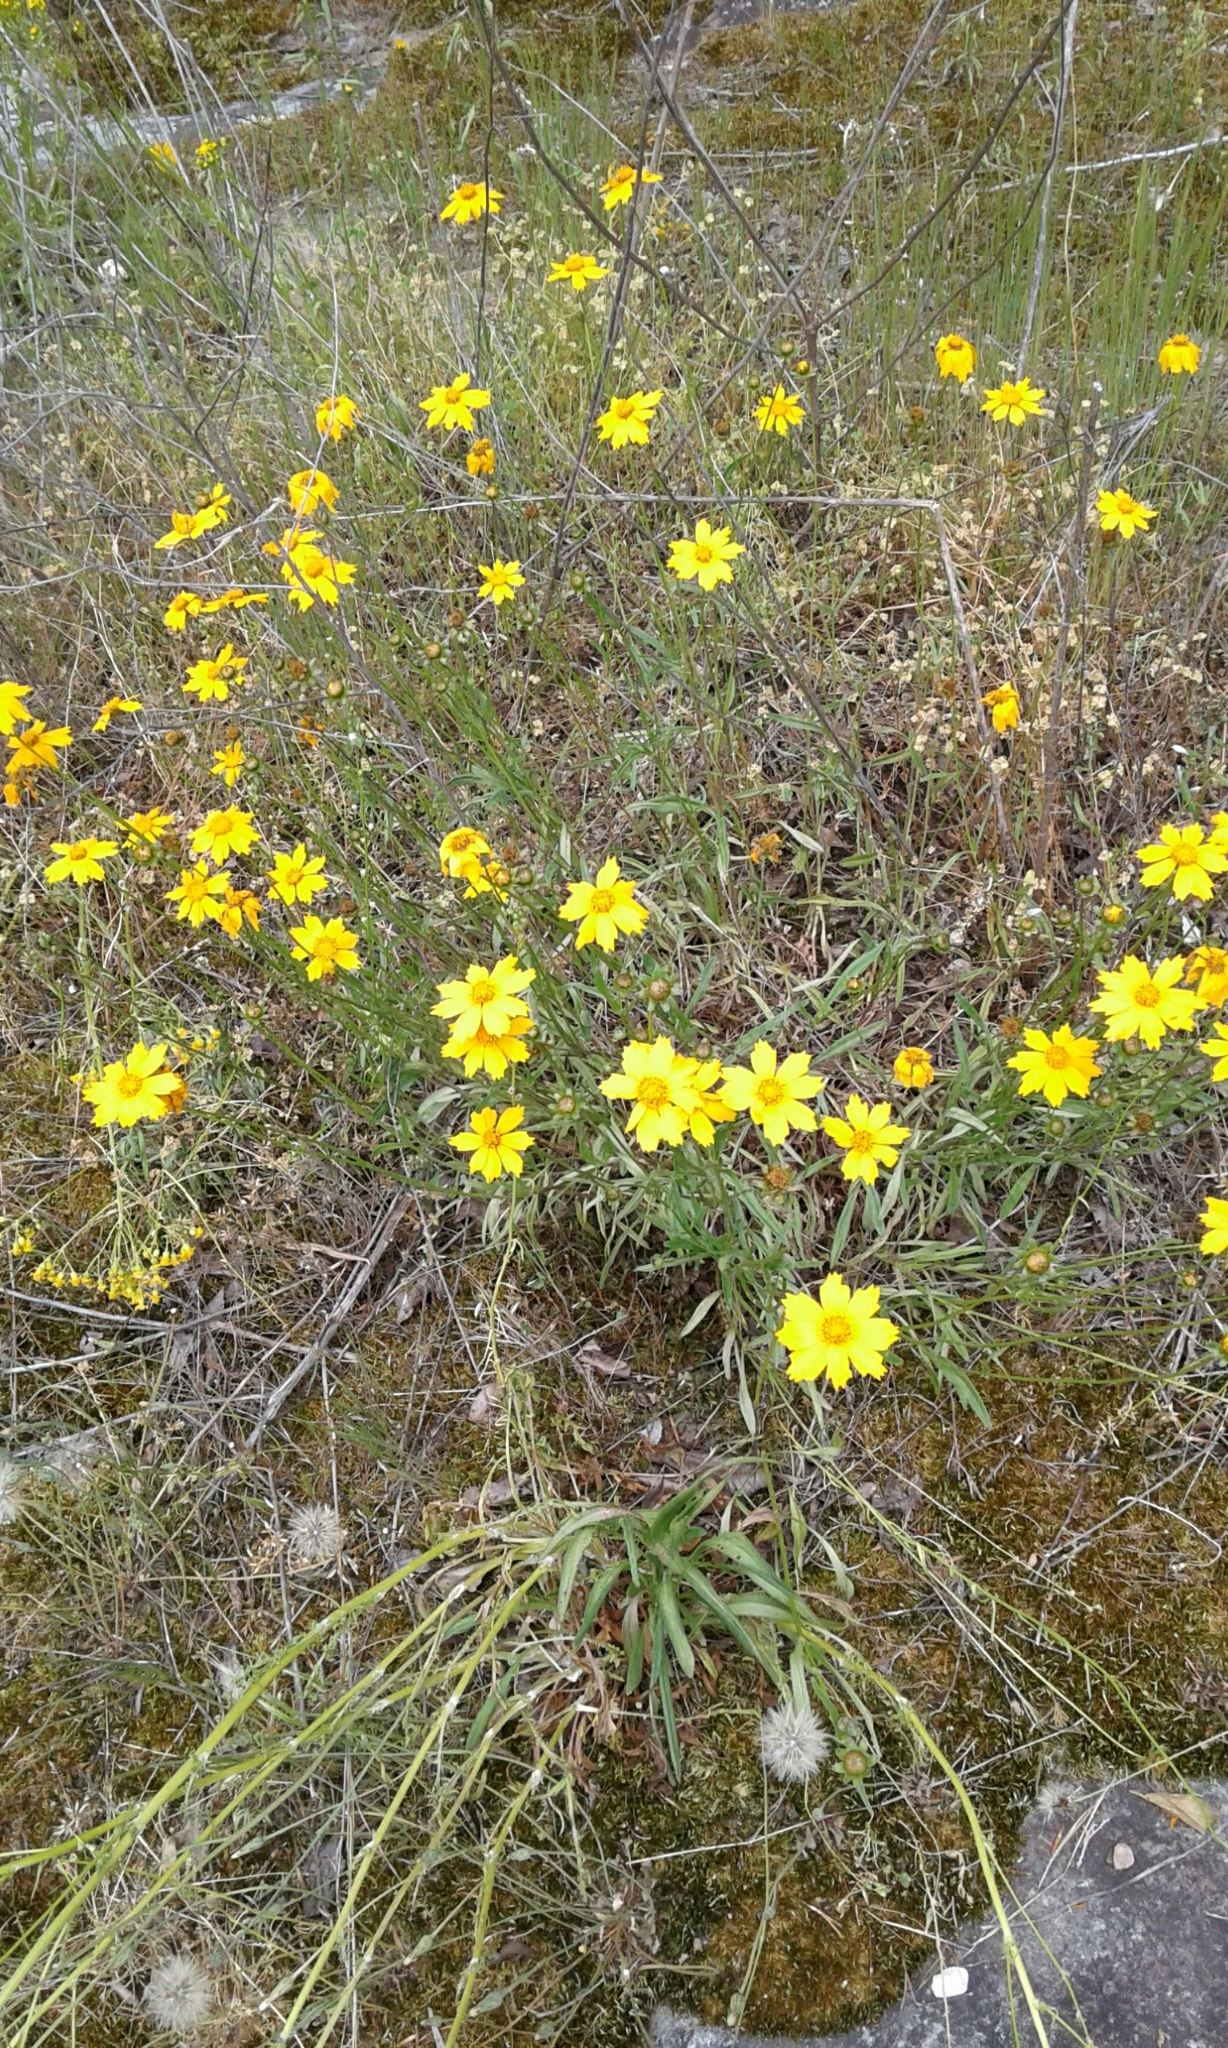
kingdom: Plantae
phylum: Tracheophyta
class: Magnoliopsida
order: Asterales
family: Asteraceae
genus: Coreopsis
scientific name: Coreopsis lanceolata
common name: Garden coreopsis
